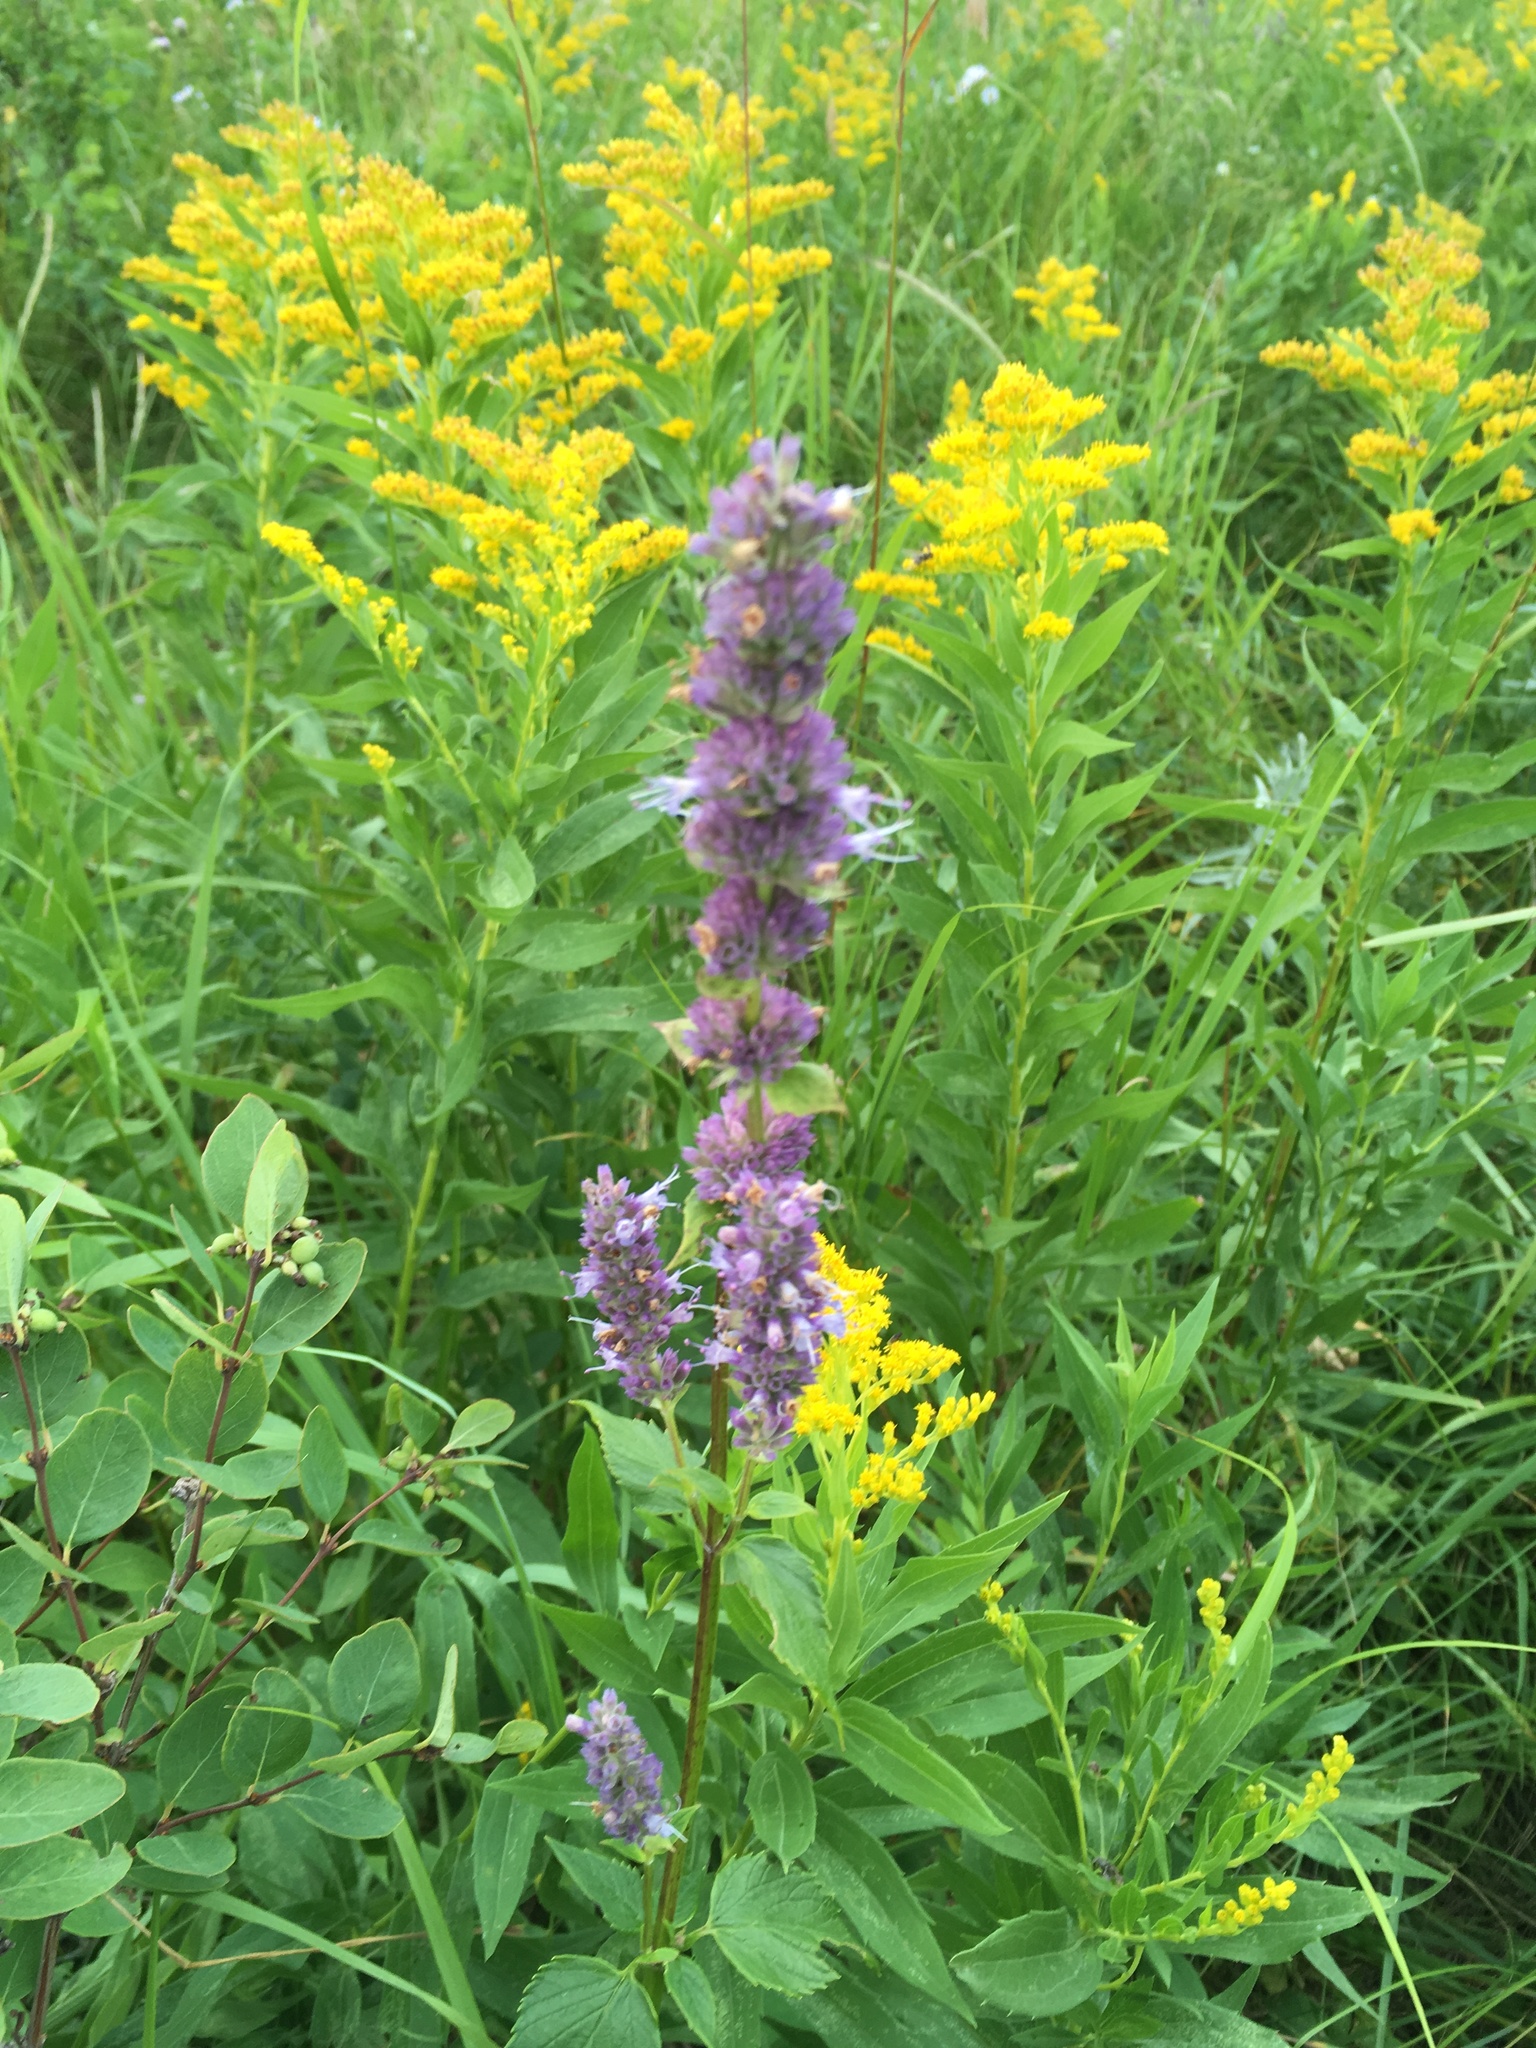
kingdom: Plantae
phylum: Tracheophyta
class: Magnoliopsida
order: Lamiales
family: Lamiaceae
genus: Agastache
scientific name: Agastache foeniculum
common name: Anise hyssop
